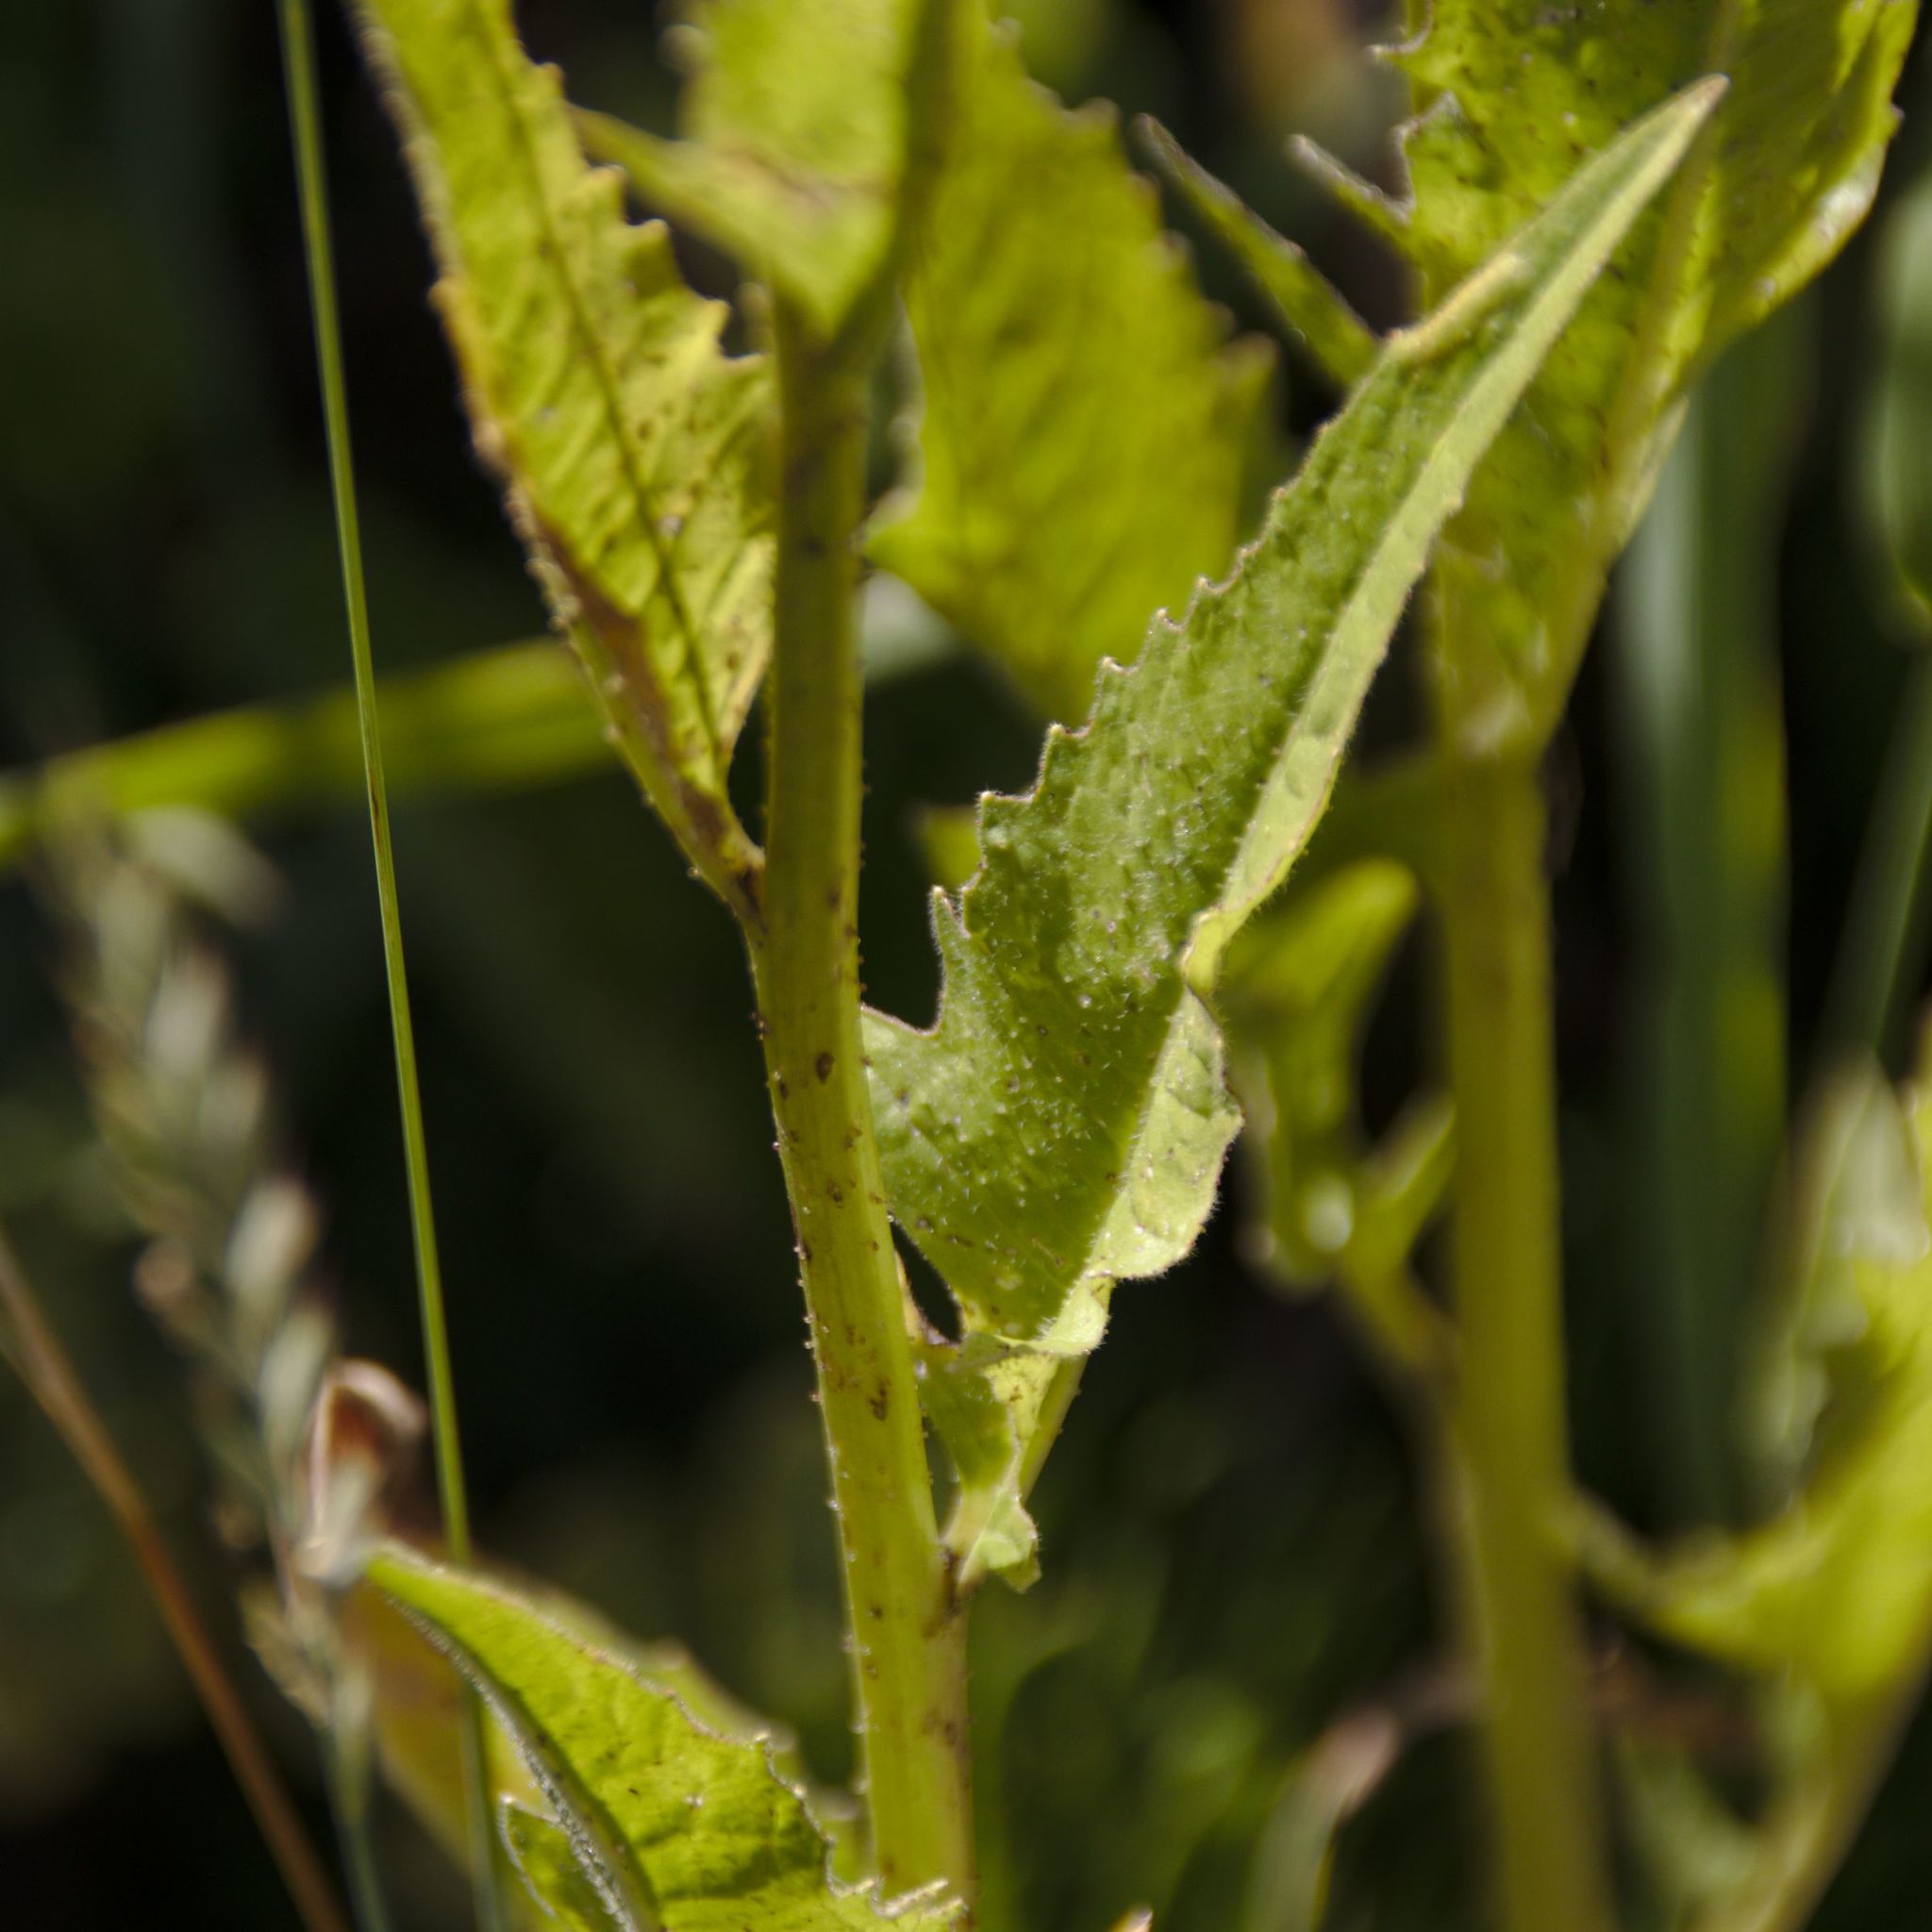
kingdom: Plantae
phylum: Tracheophyta
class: Magnoliopsida
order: Brassicales
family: Brassicaceae
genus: Bunias
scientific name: Bunias orientalis
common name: Warty-cabbage
